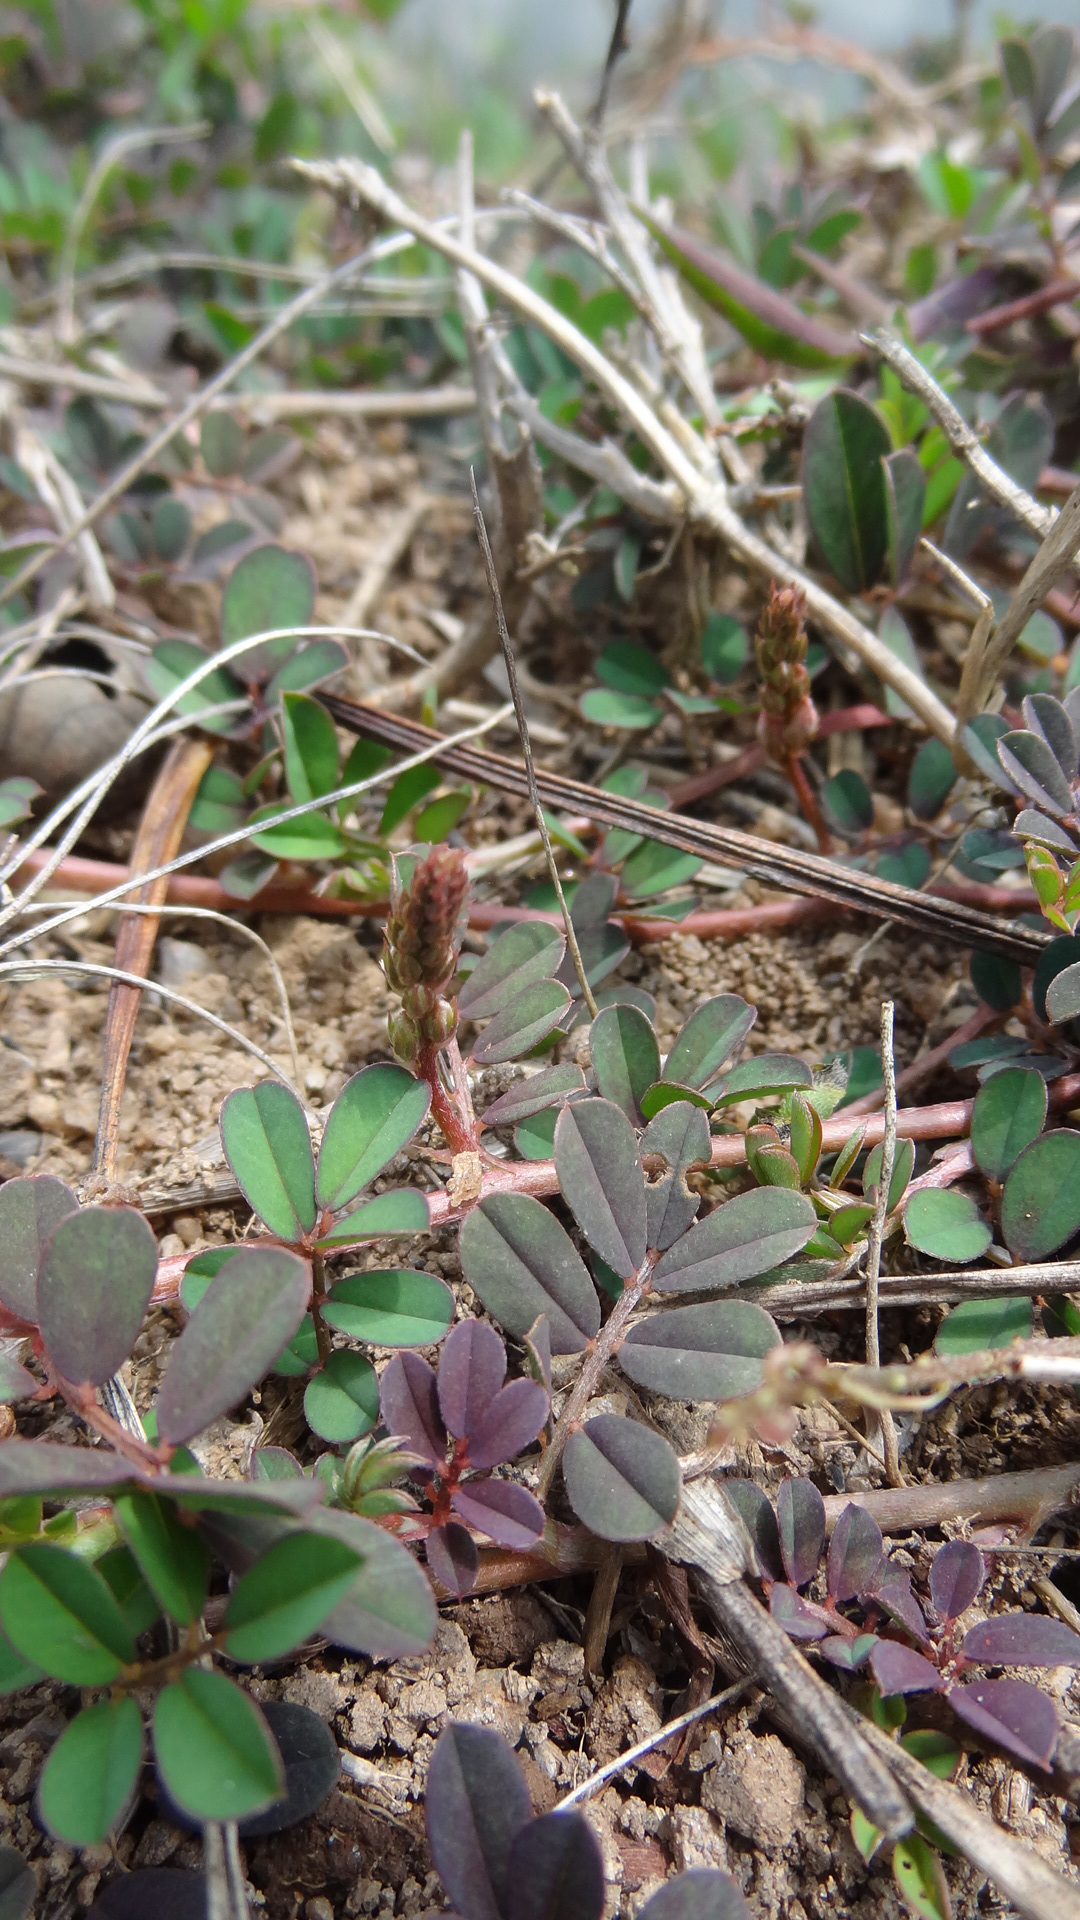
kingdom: Plantae
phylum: Tracheophyta
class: Magnoliopsida
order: Fabales
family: Fabaceae
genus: Indigofera
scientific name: Indigofera linnaei
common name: Nine-leaf indigo
